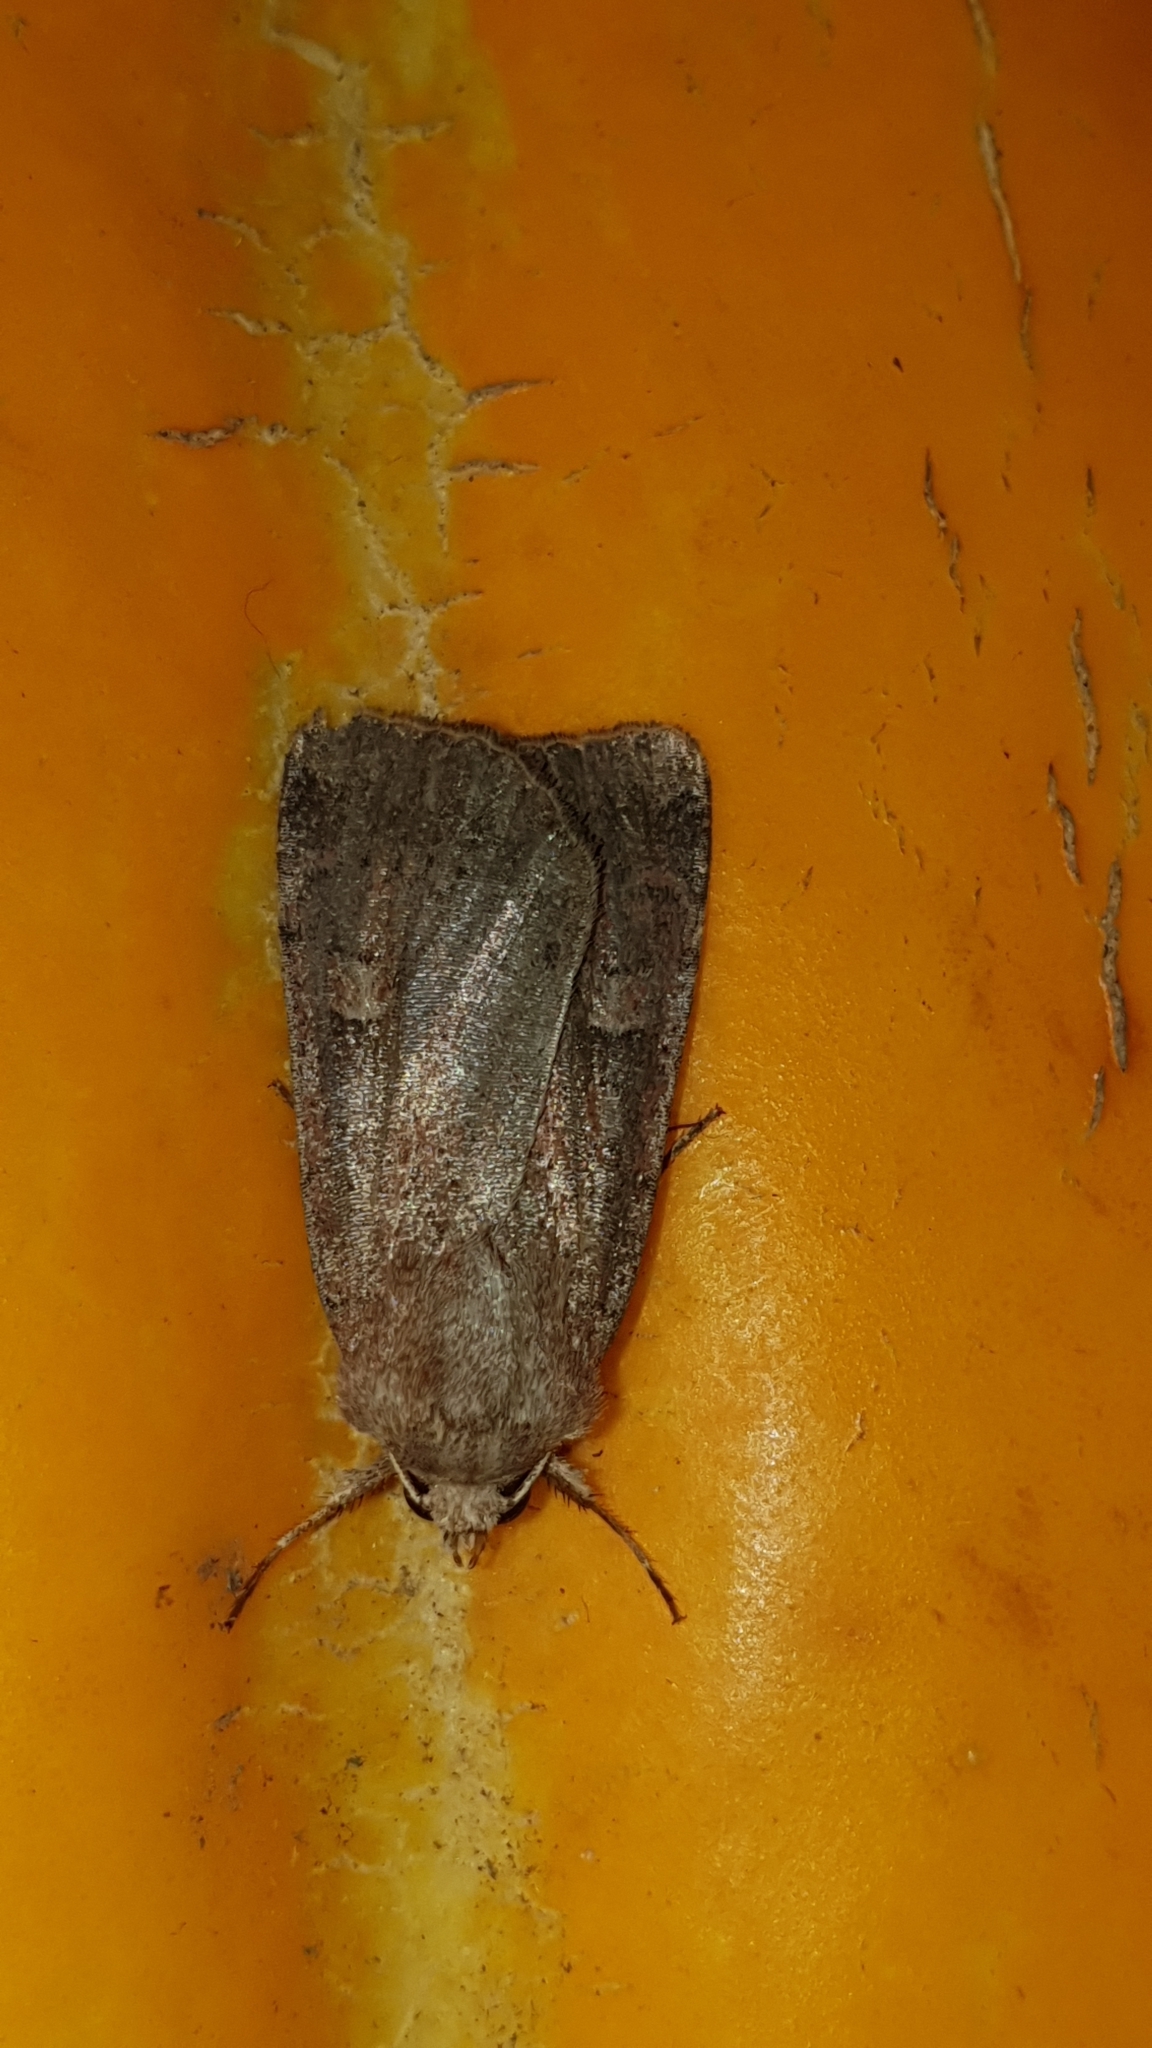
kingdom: Animalia
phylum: Arthropoda
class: Insecta
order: Lepidoptera
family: Noctuidae
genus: Xestia
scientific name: Xestia xanthographa
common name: Square-spot rustic
